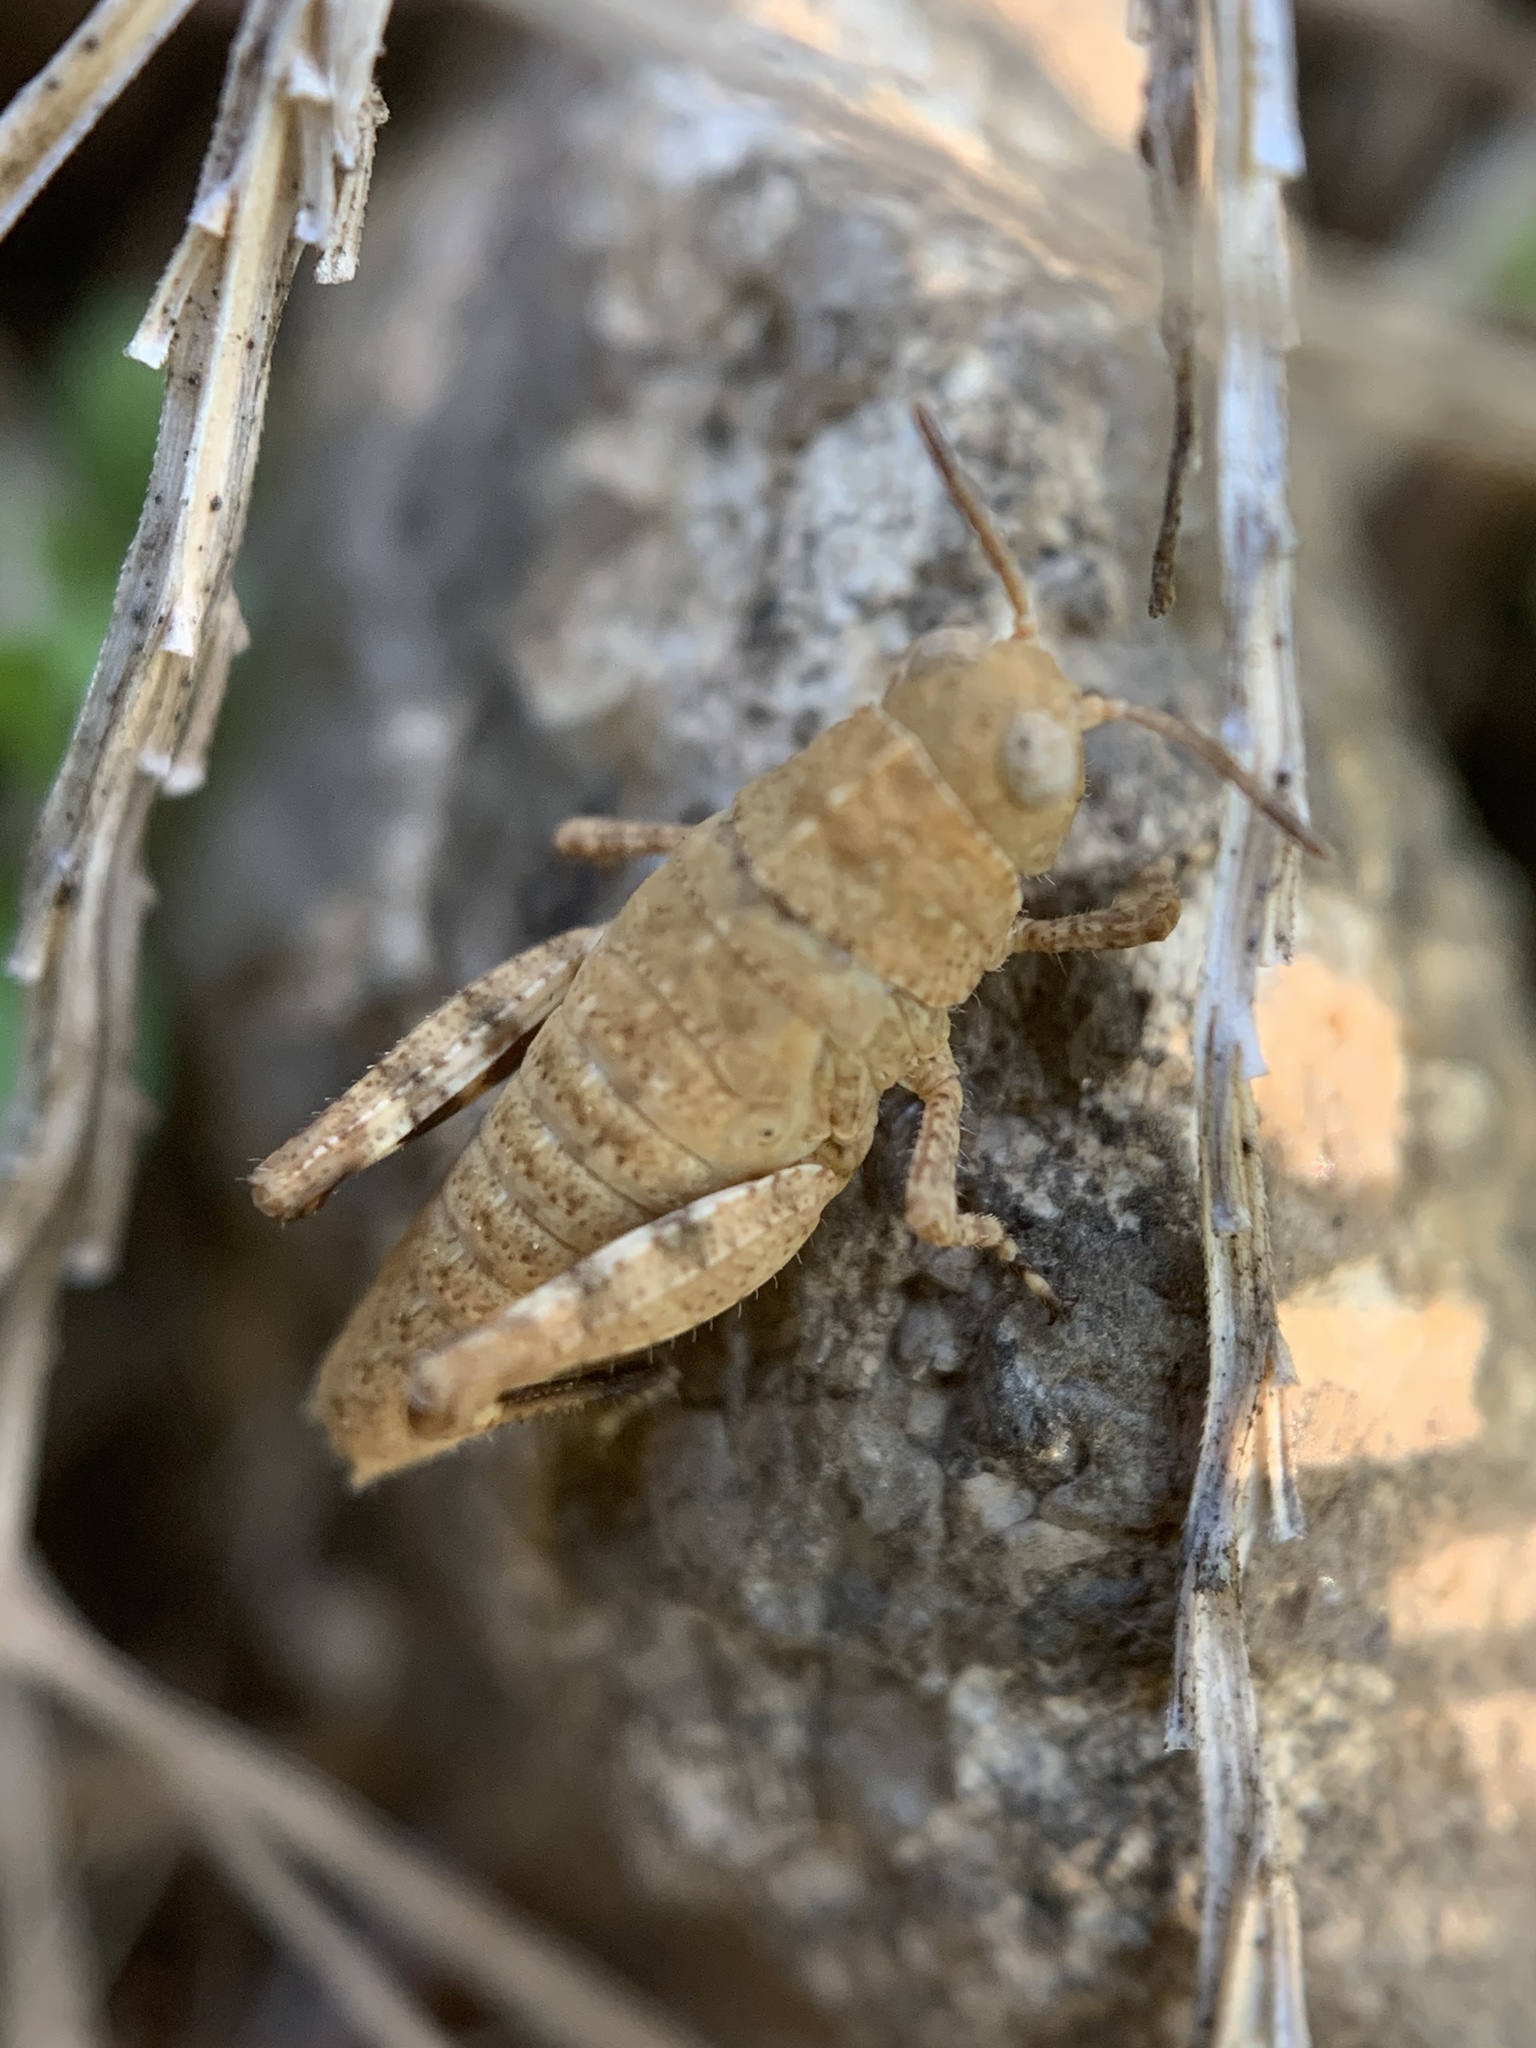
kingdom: Animalia
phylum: Arthropoda
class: Insecta
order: Orthoptera
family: Acrididae
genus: Dissosteira
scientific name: Dissosteira carolina
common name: Carolina grasshopper
